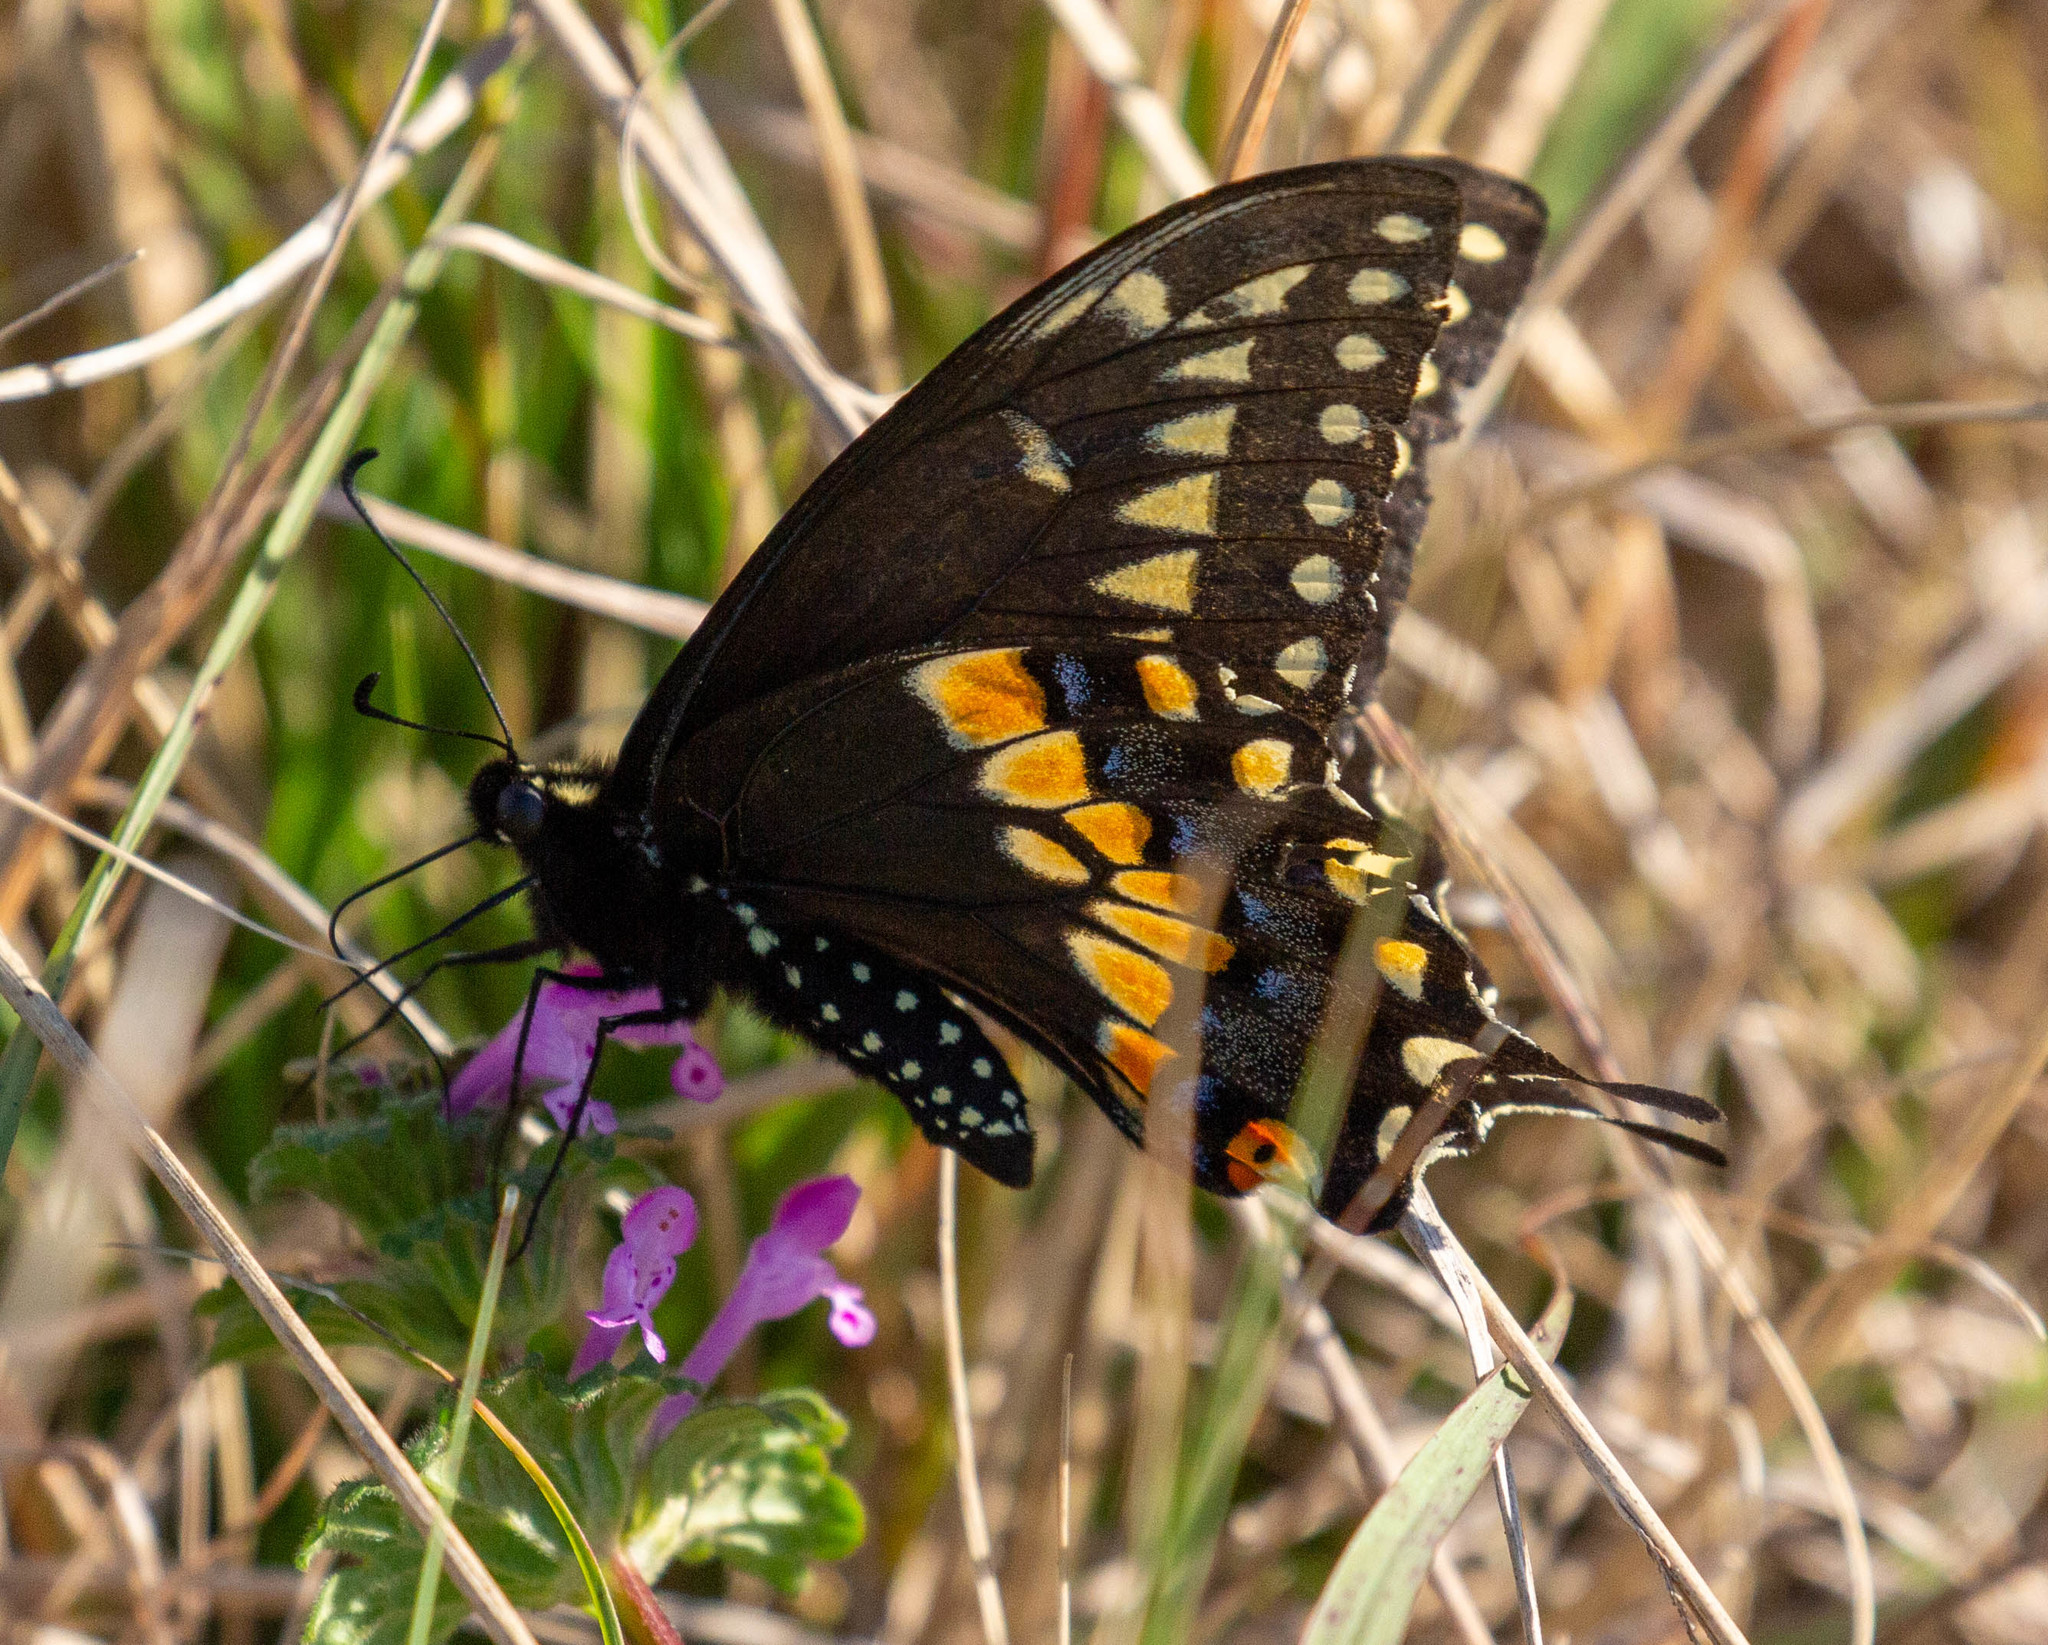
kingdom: Animalia
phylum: Arthropoda
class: Insecta
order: Lepidoptera
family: Papilionidae
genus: Papilio
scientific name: Papilio polyxenes
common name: Black swallowtail
